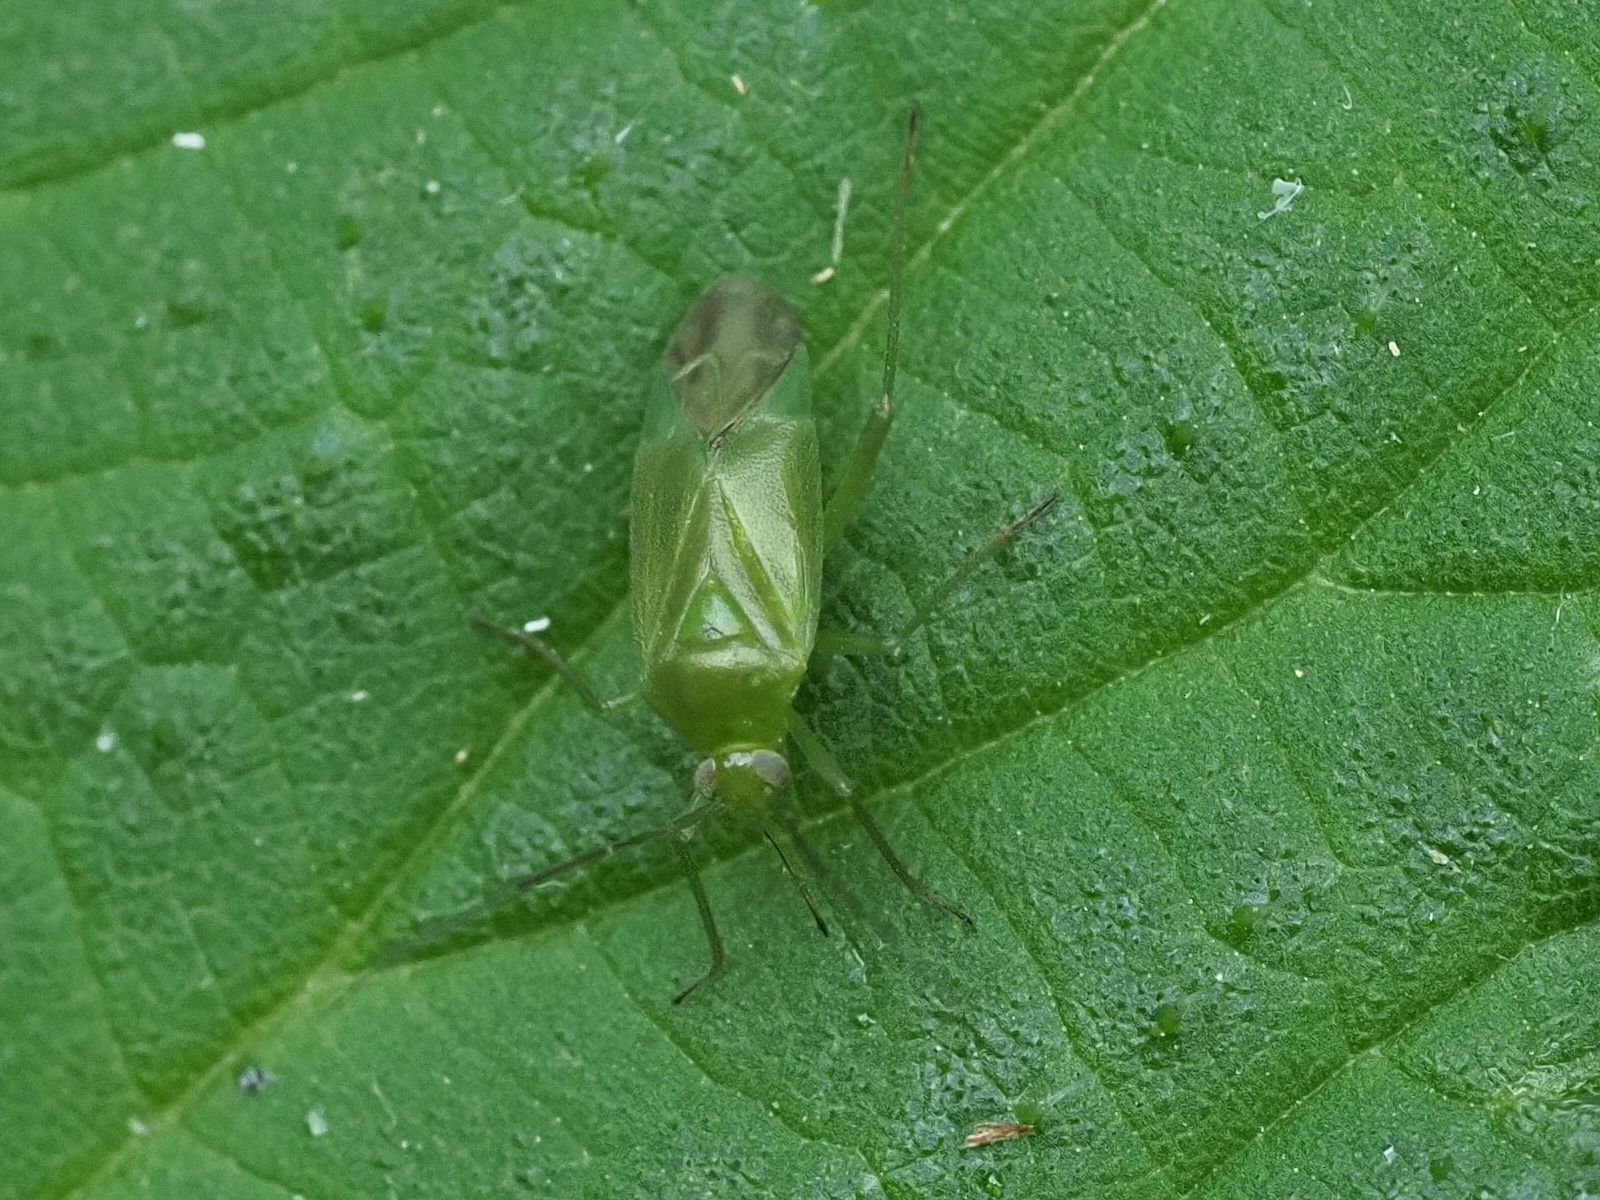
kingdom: Animalia
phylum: Arthropoda
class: Insecta
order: Hemiptera
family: Miridae
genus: Lygocoris
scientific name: Lygocoris pabulinus
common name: Common green capsid
